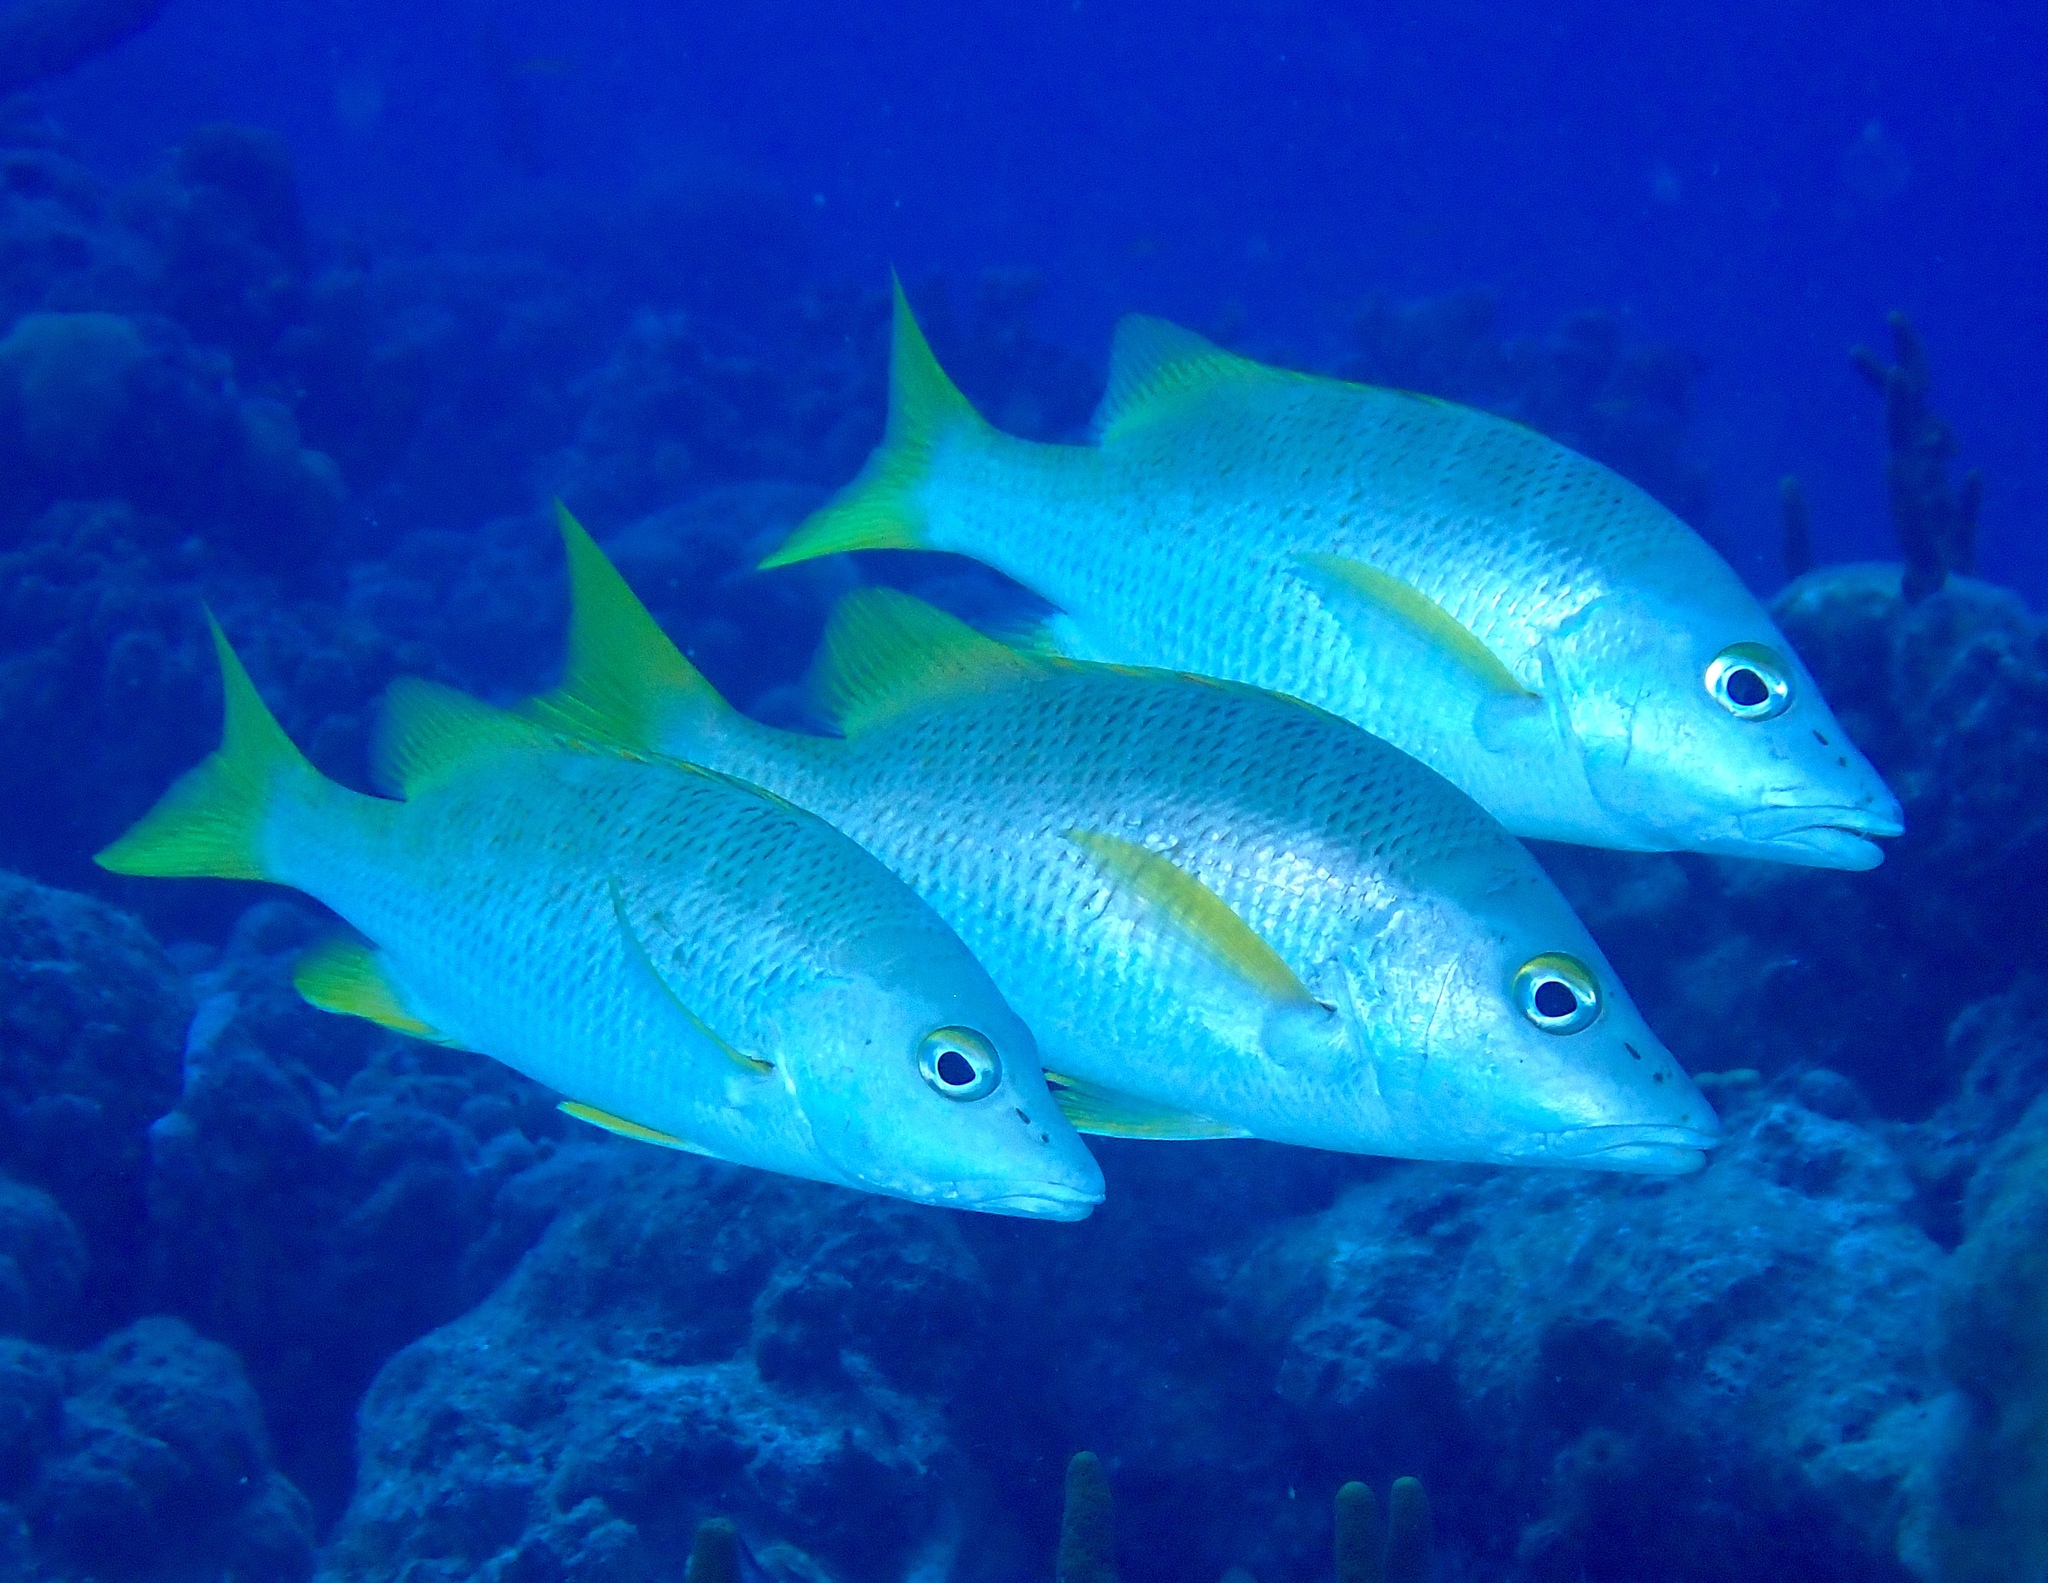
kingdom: Animalia
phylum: Chordata
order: Perciformes
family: Lutjanidae
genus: Lutjanus
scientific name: Lutjanus apodus
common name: Schoolmaster
